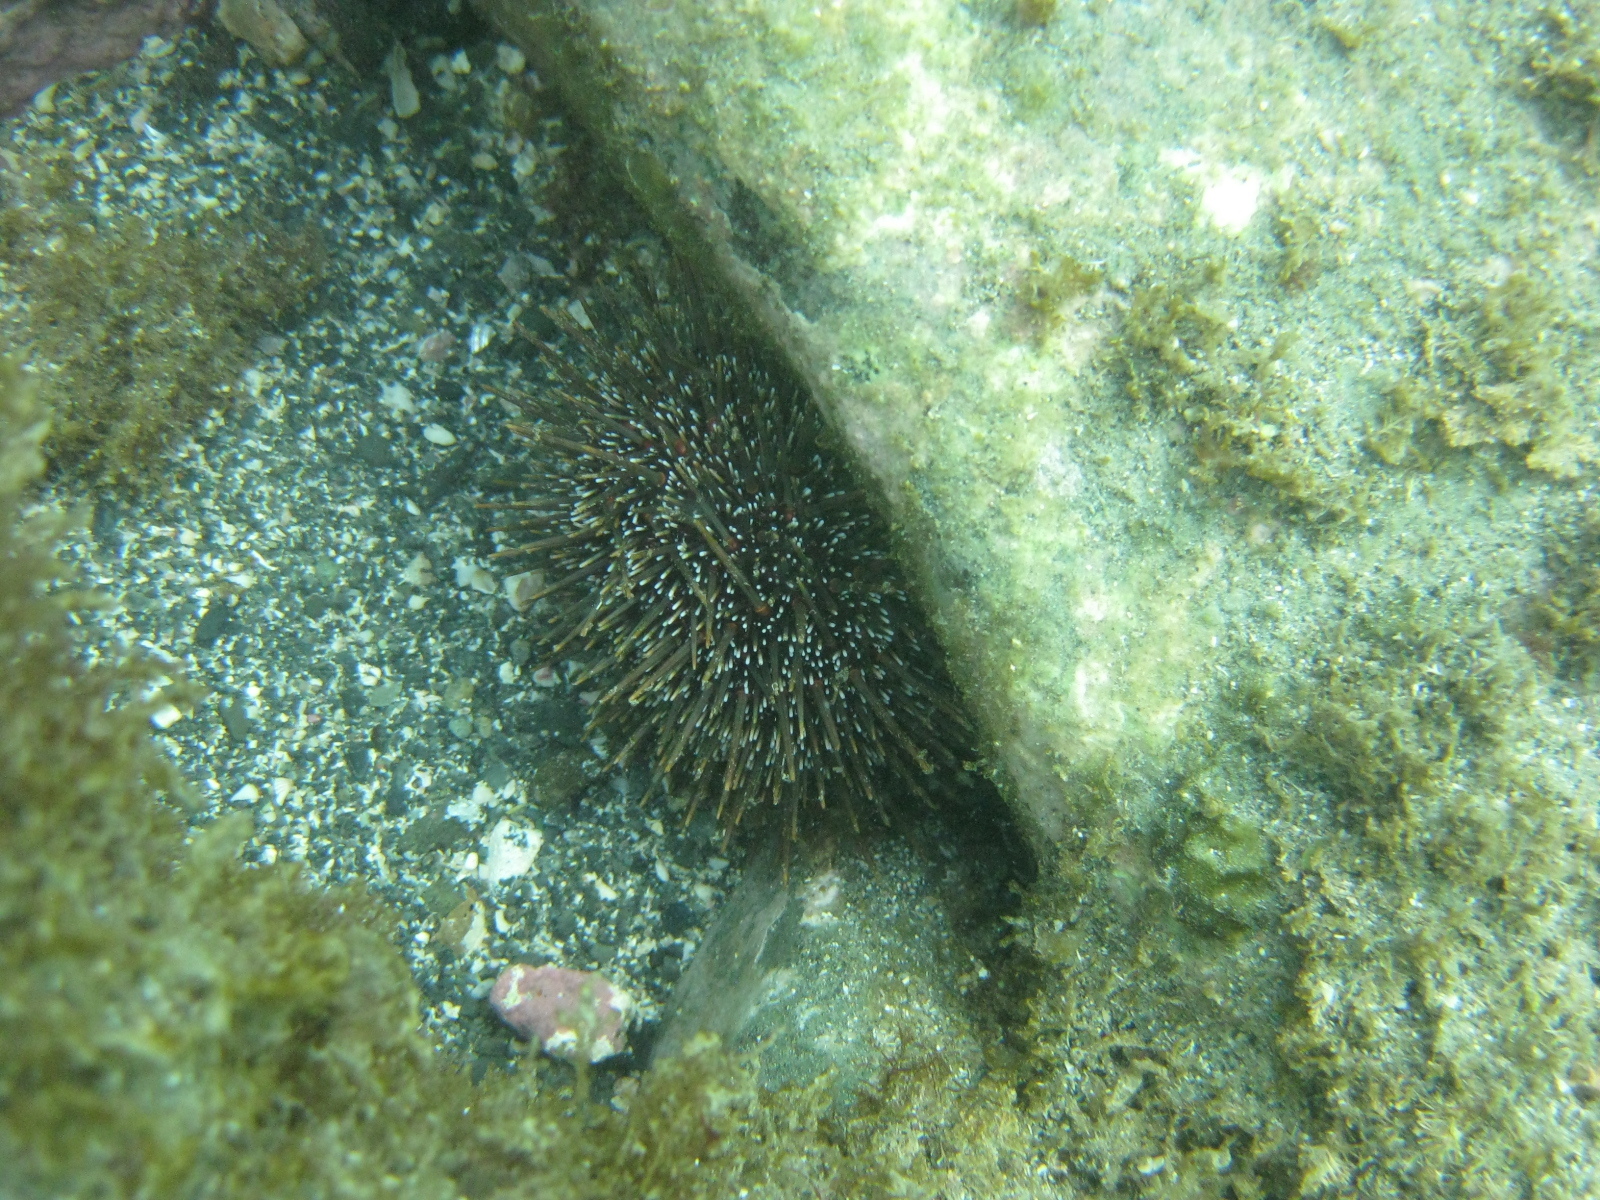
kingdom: Animalia
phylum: Echinodermata
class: Echinoidea
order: Camarodonta
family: Echinometridae
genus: Evechinus
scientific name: Evechinus chloroticus
